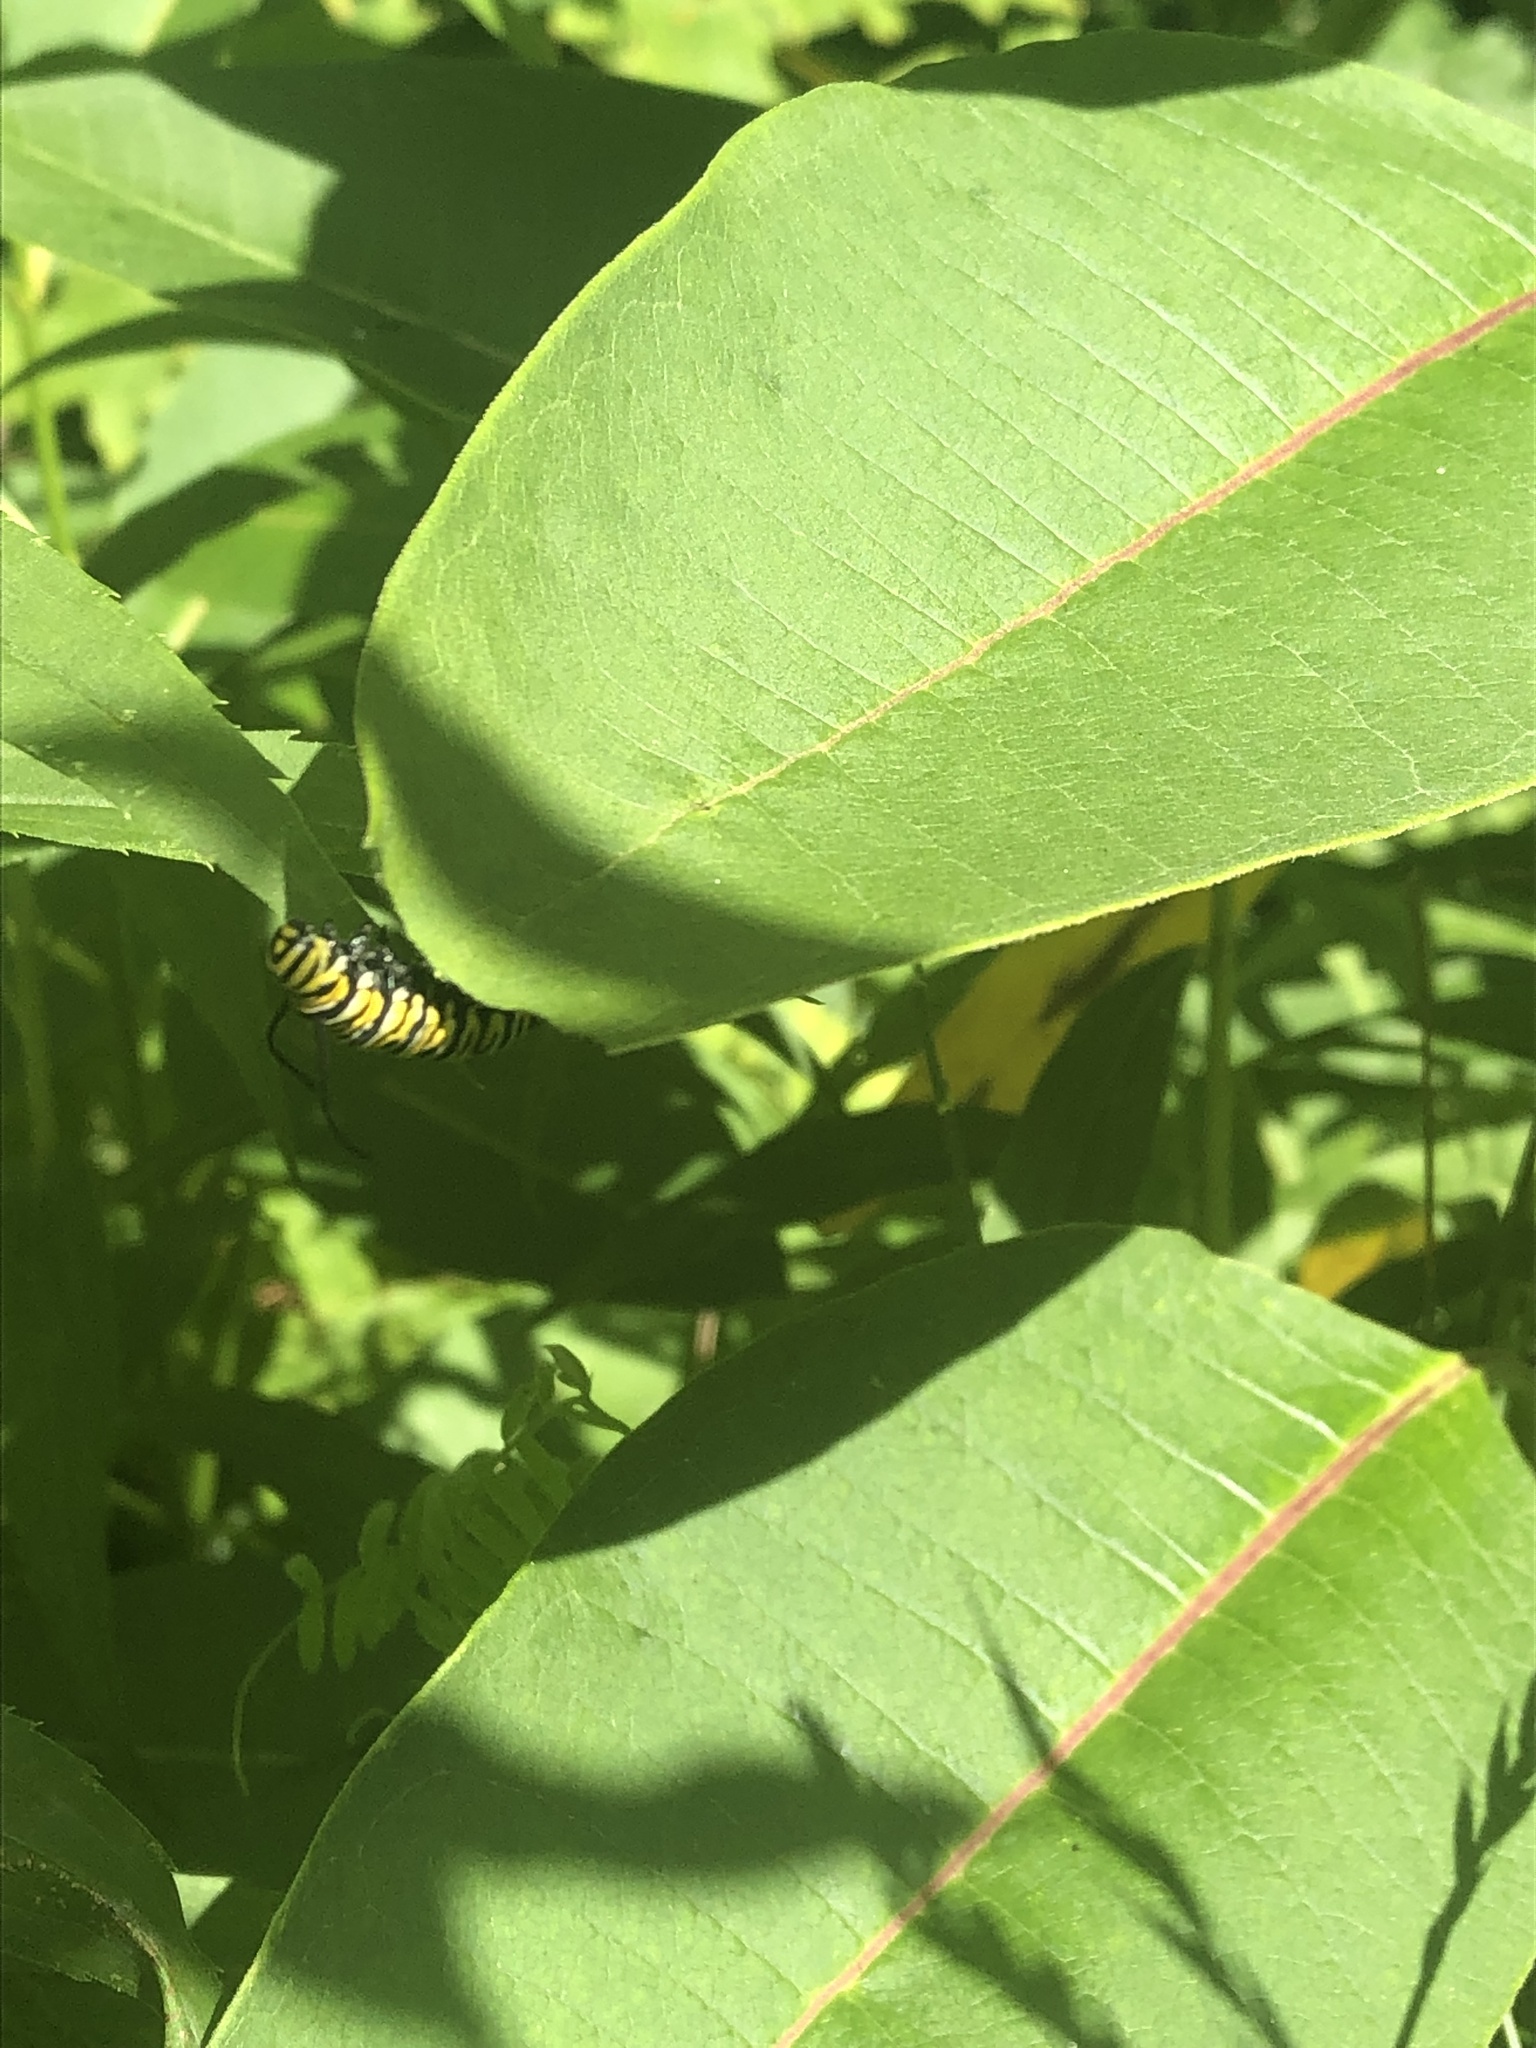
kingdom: Animalia
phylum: Arthropoda
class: Insecta
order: Lepidoptera
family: Nymphalidae
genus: Danaus
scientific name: Danaus plexippus
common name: Monarch
